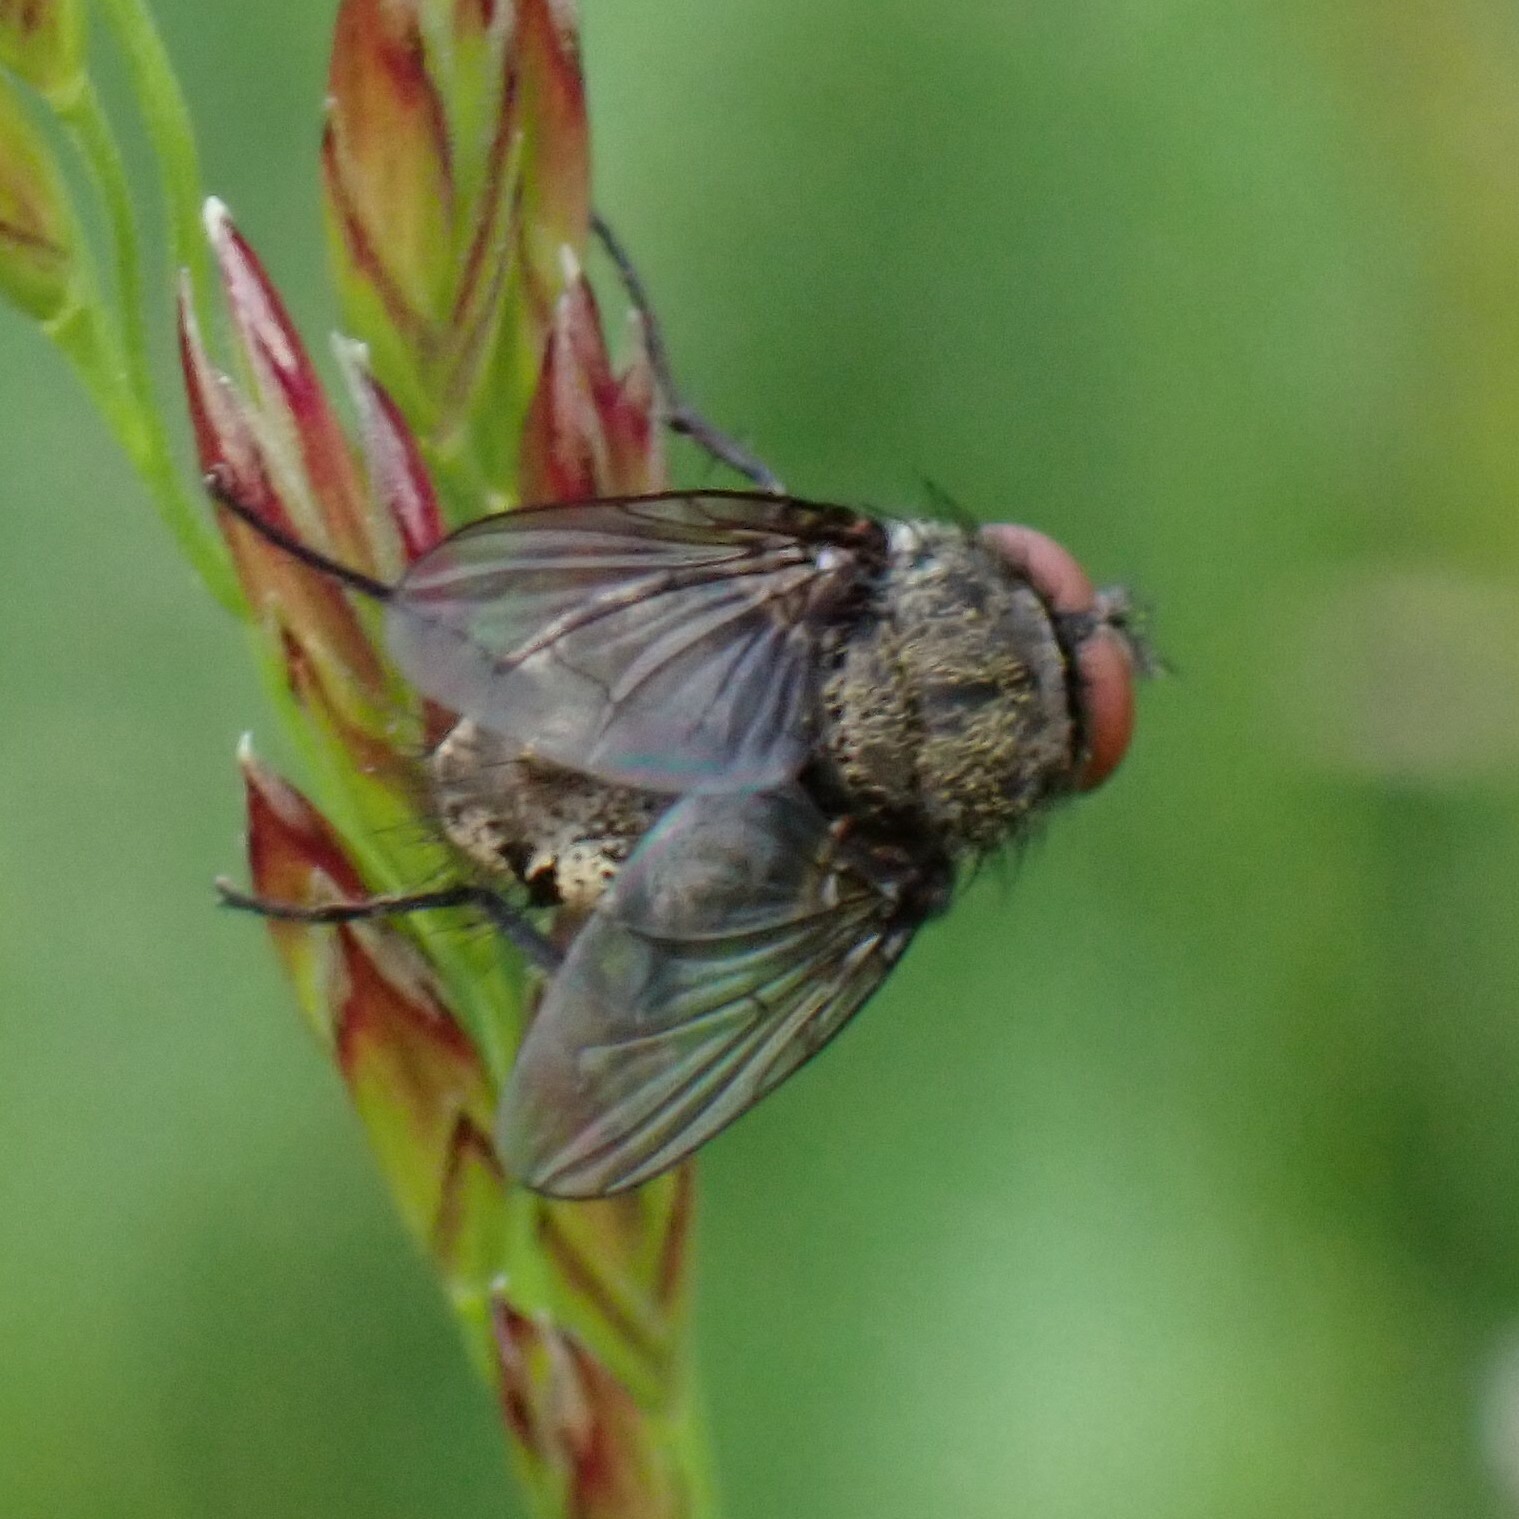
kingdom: Animalia
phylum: Arthropoda
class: Insecta
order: Diptera
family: Polleniidae
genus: Pollenia
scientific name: Pollenia
